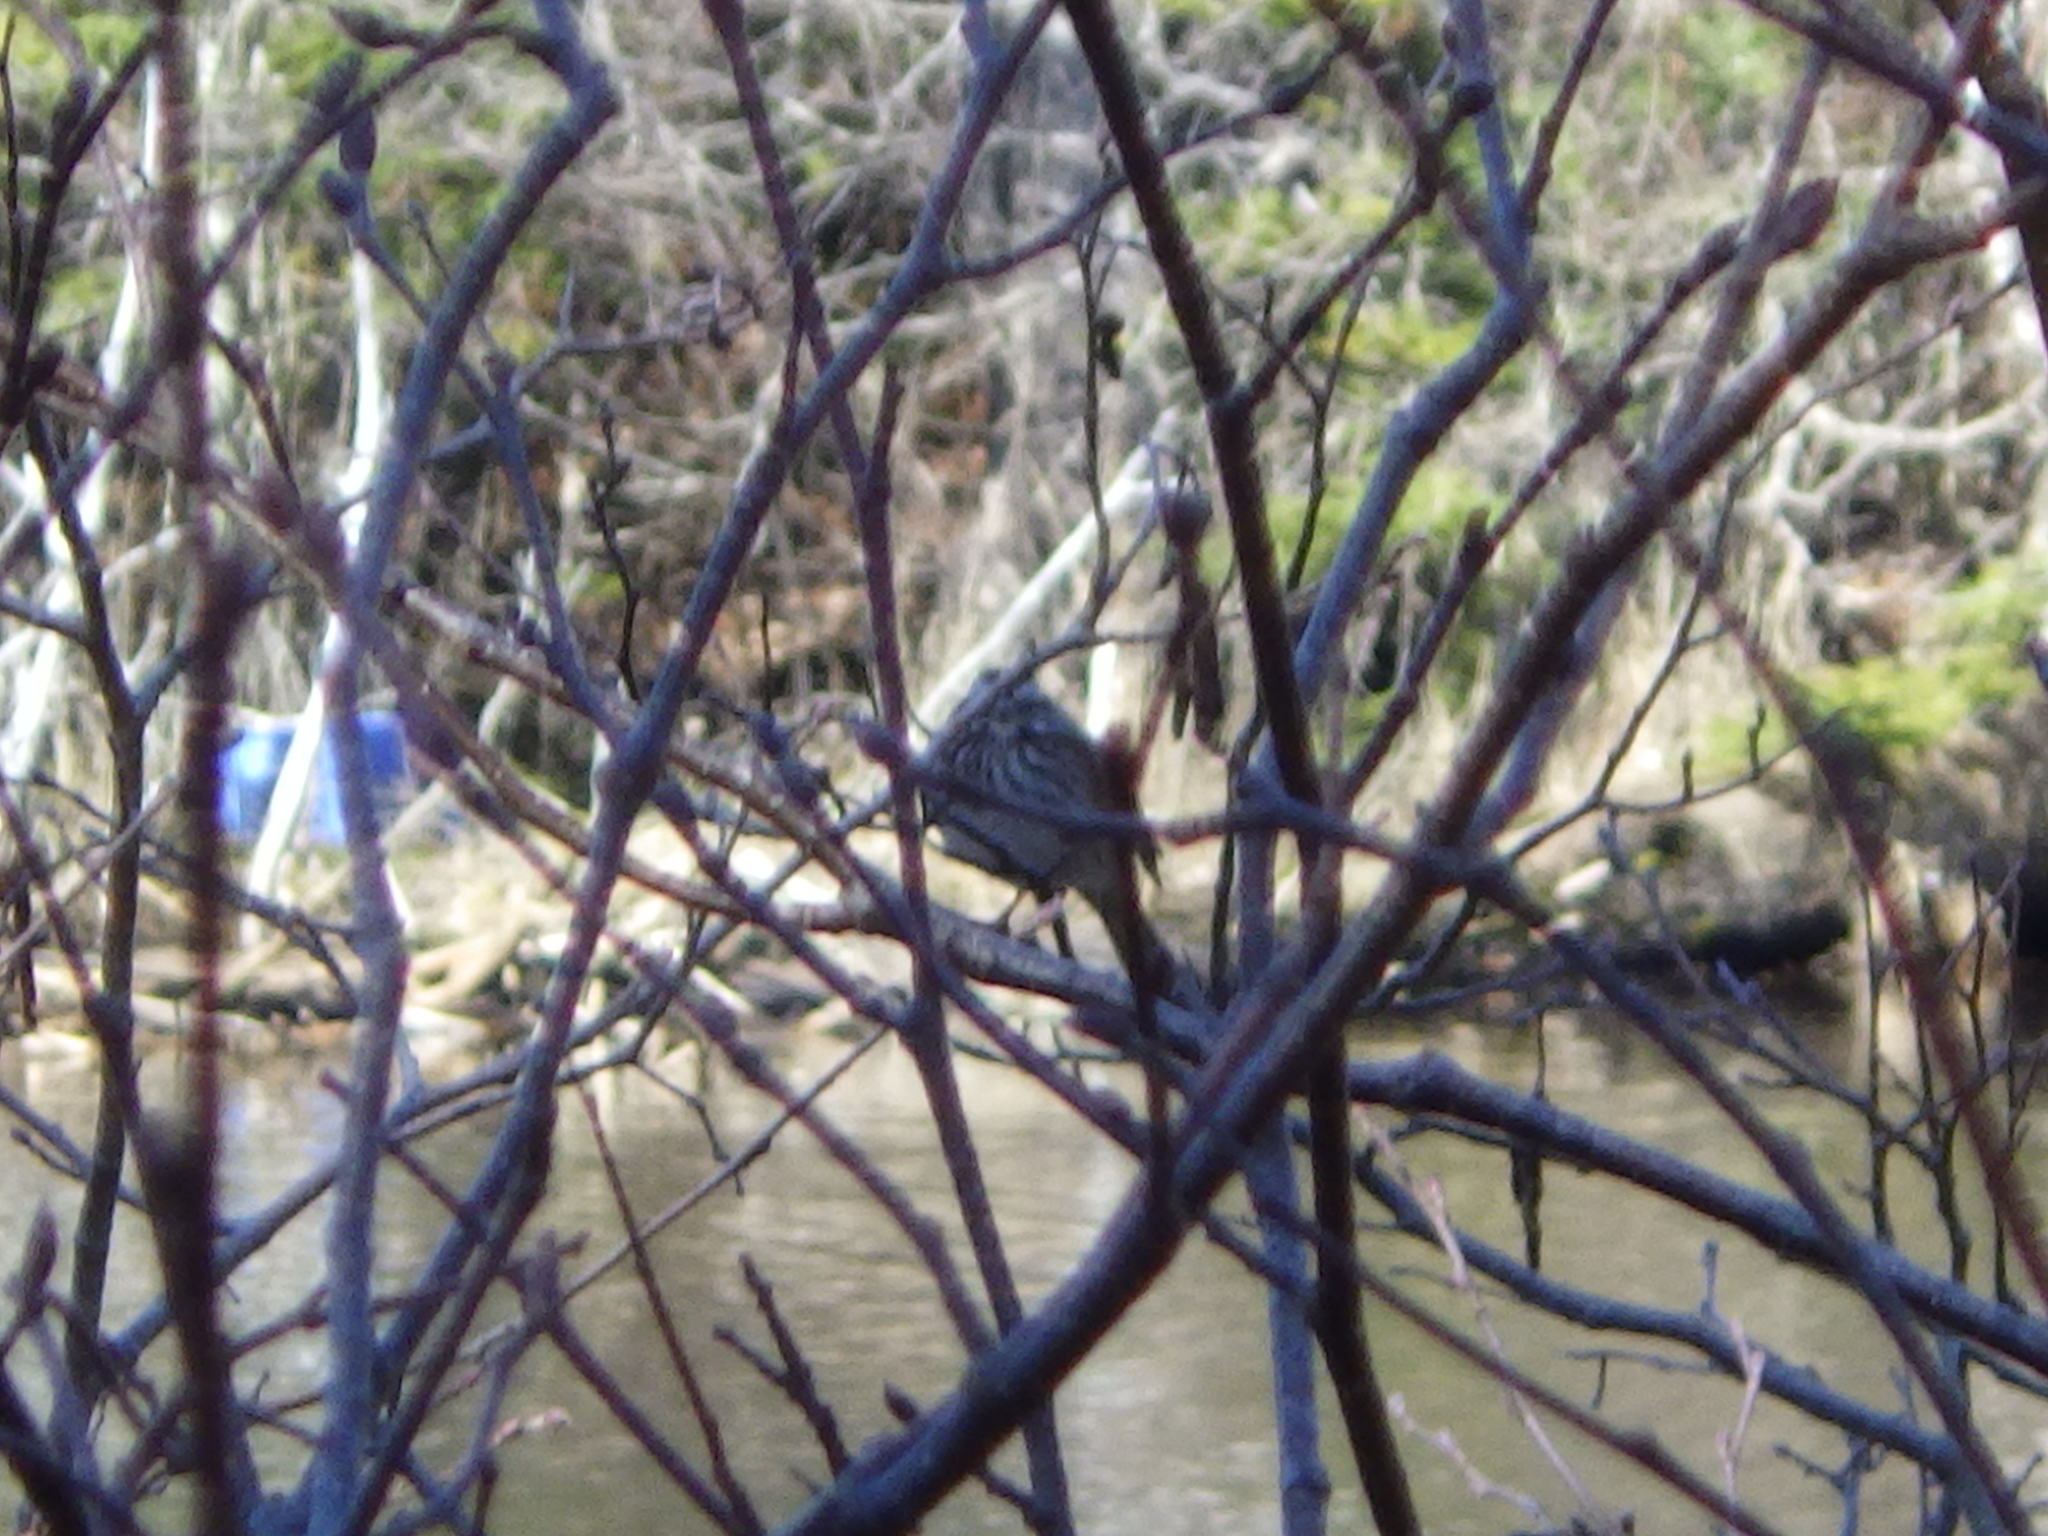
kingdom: Animalia
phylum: Chordata
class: Aves
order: Passeriformes
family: Passerellidae
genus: Melospiza
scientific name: Melospiza melodia
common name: Song sparrow
